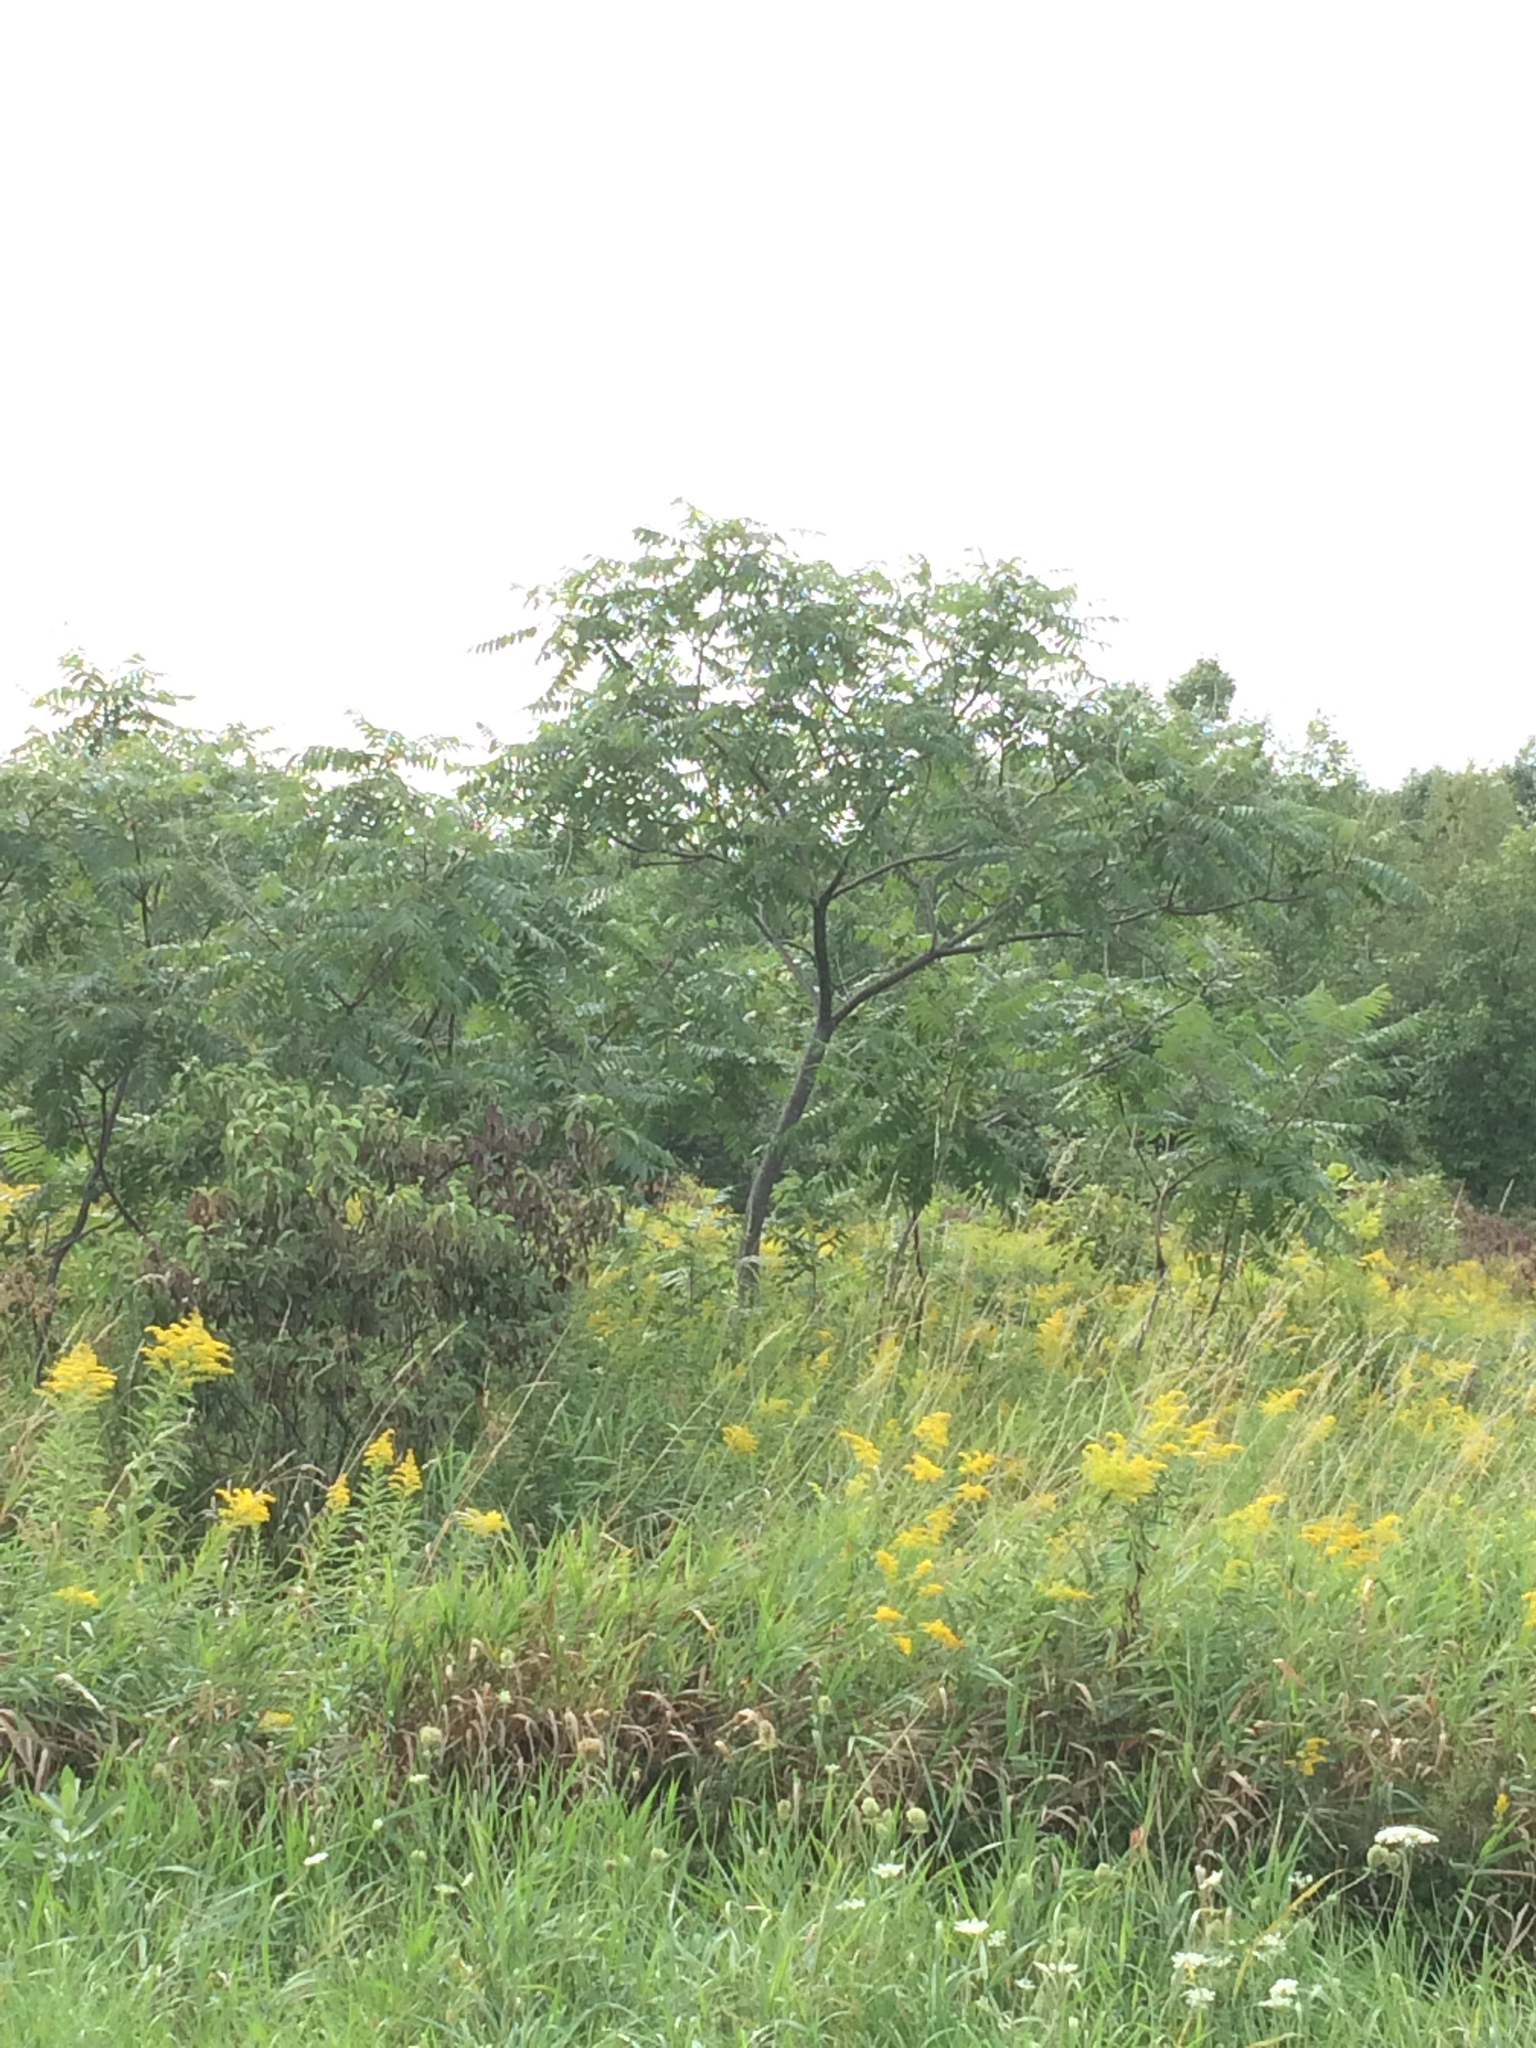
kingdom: Plantae
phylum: Tracheophyta
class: Magnoliopsida
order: Sapindales
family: Anacardiaceae
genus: Rhus
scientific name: Rhus typhina
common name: Staghorn sumac
